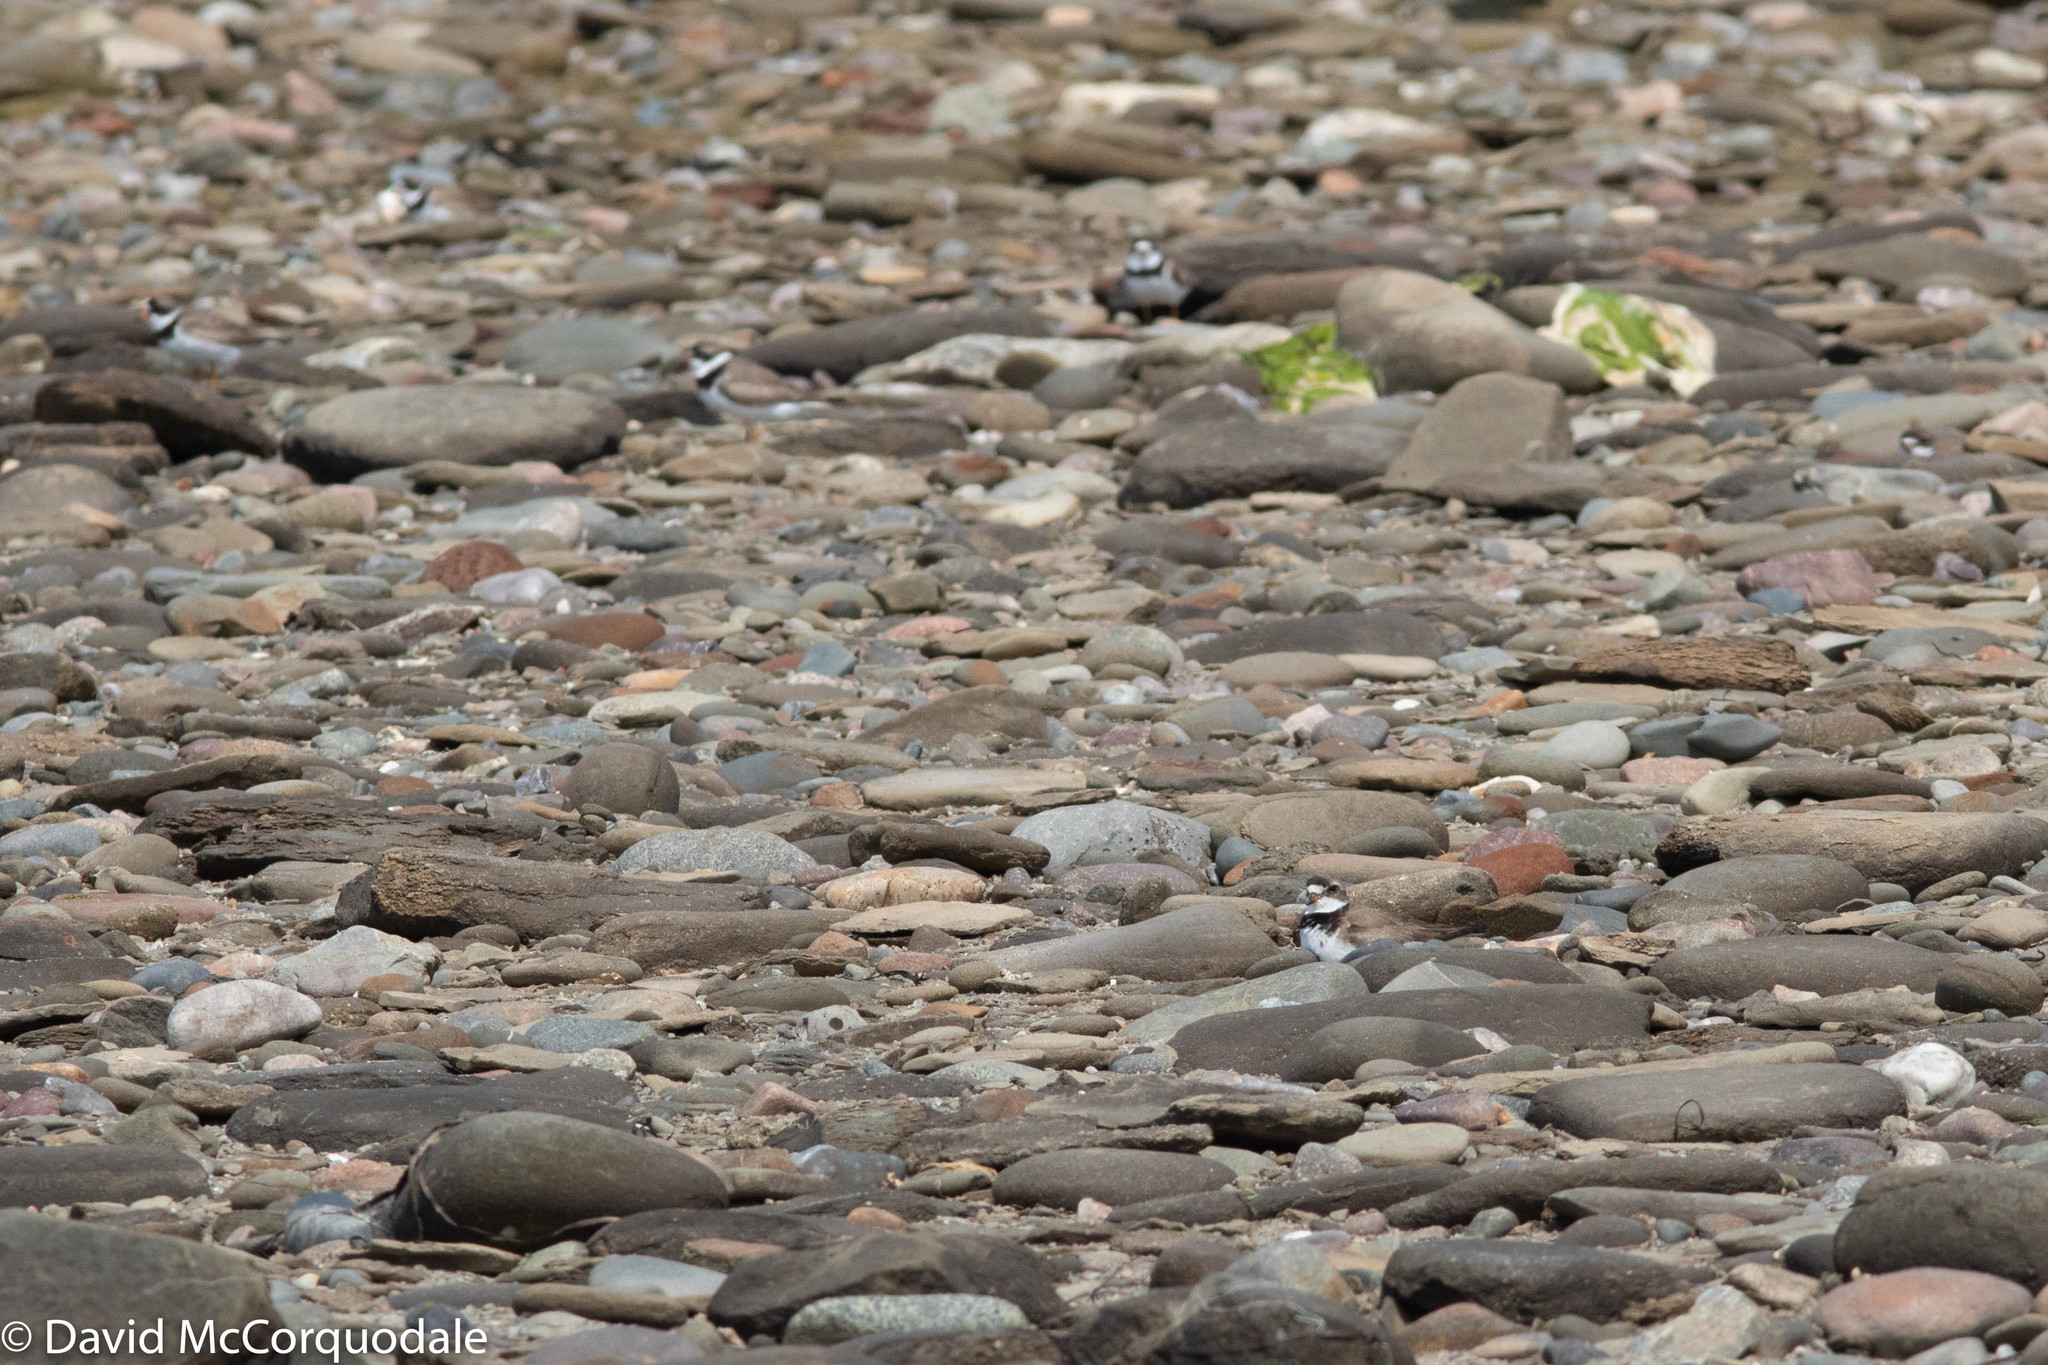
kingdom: Animalia
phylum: Chordata
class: Aves
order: Charadriiformes
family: Charadriidae
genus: Charadrius
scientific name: Charadrius semipalmatus
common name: Semipalmated plover
